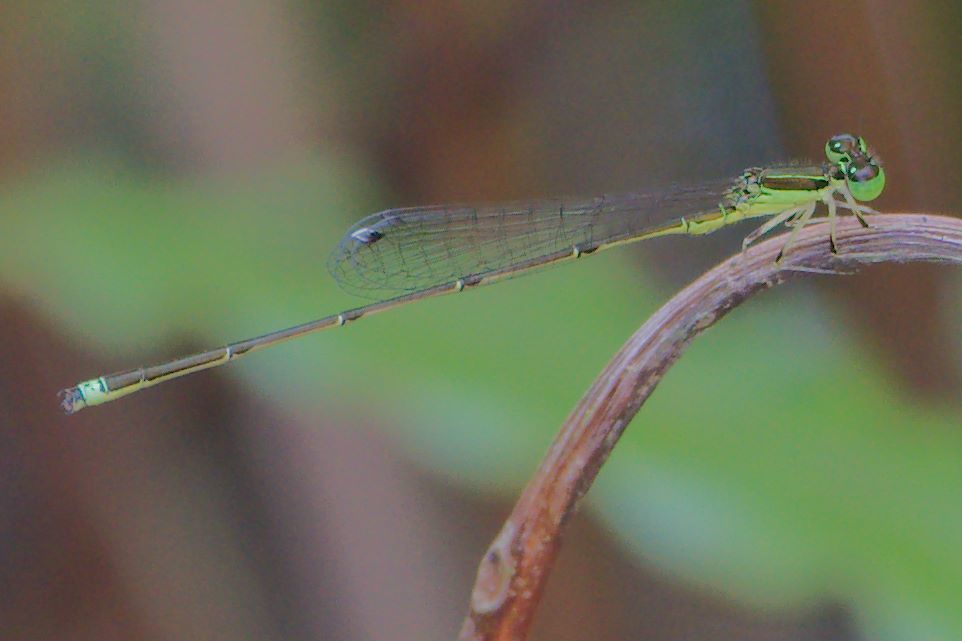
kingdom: Animalia
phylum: Arthropoda
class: Insecta
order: Odonata
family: Coenagrionidae
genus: Ischnura
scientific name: Ischnura prognata
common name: Furtive forktail
